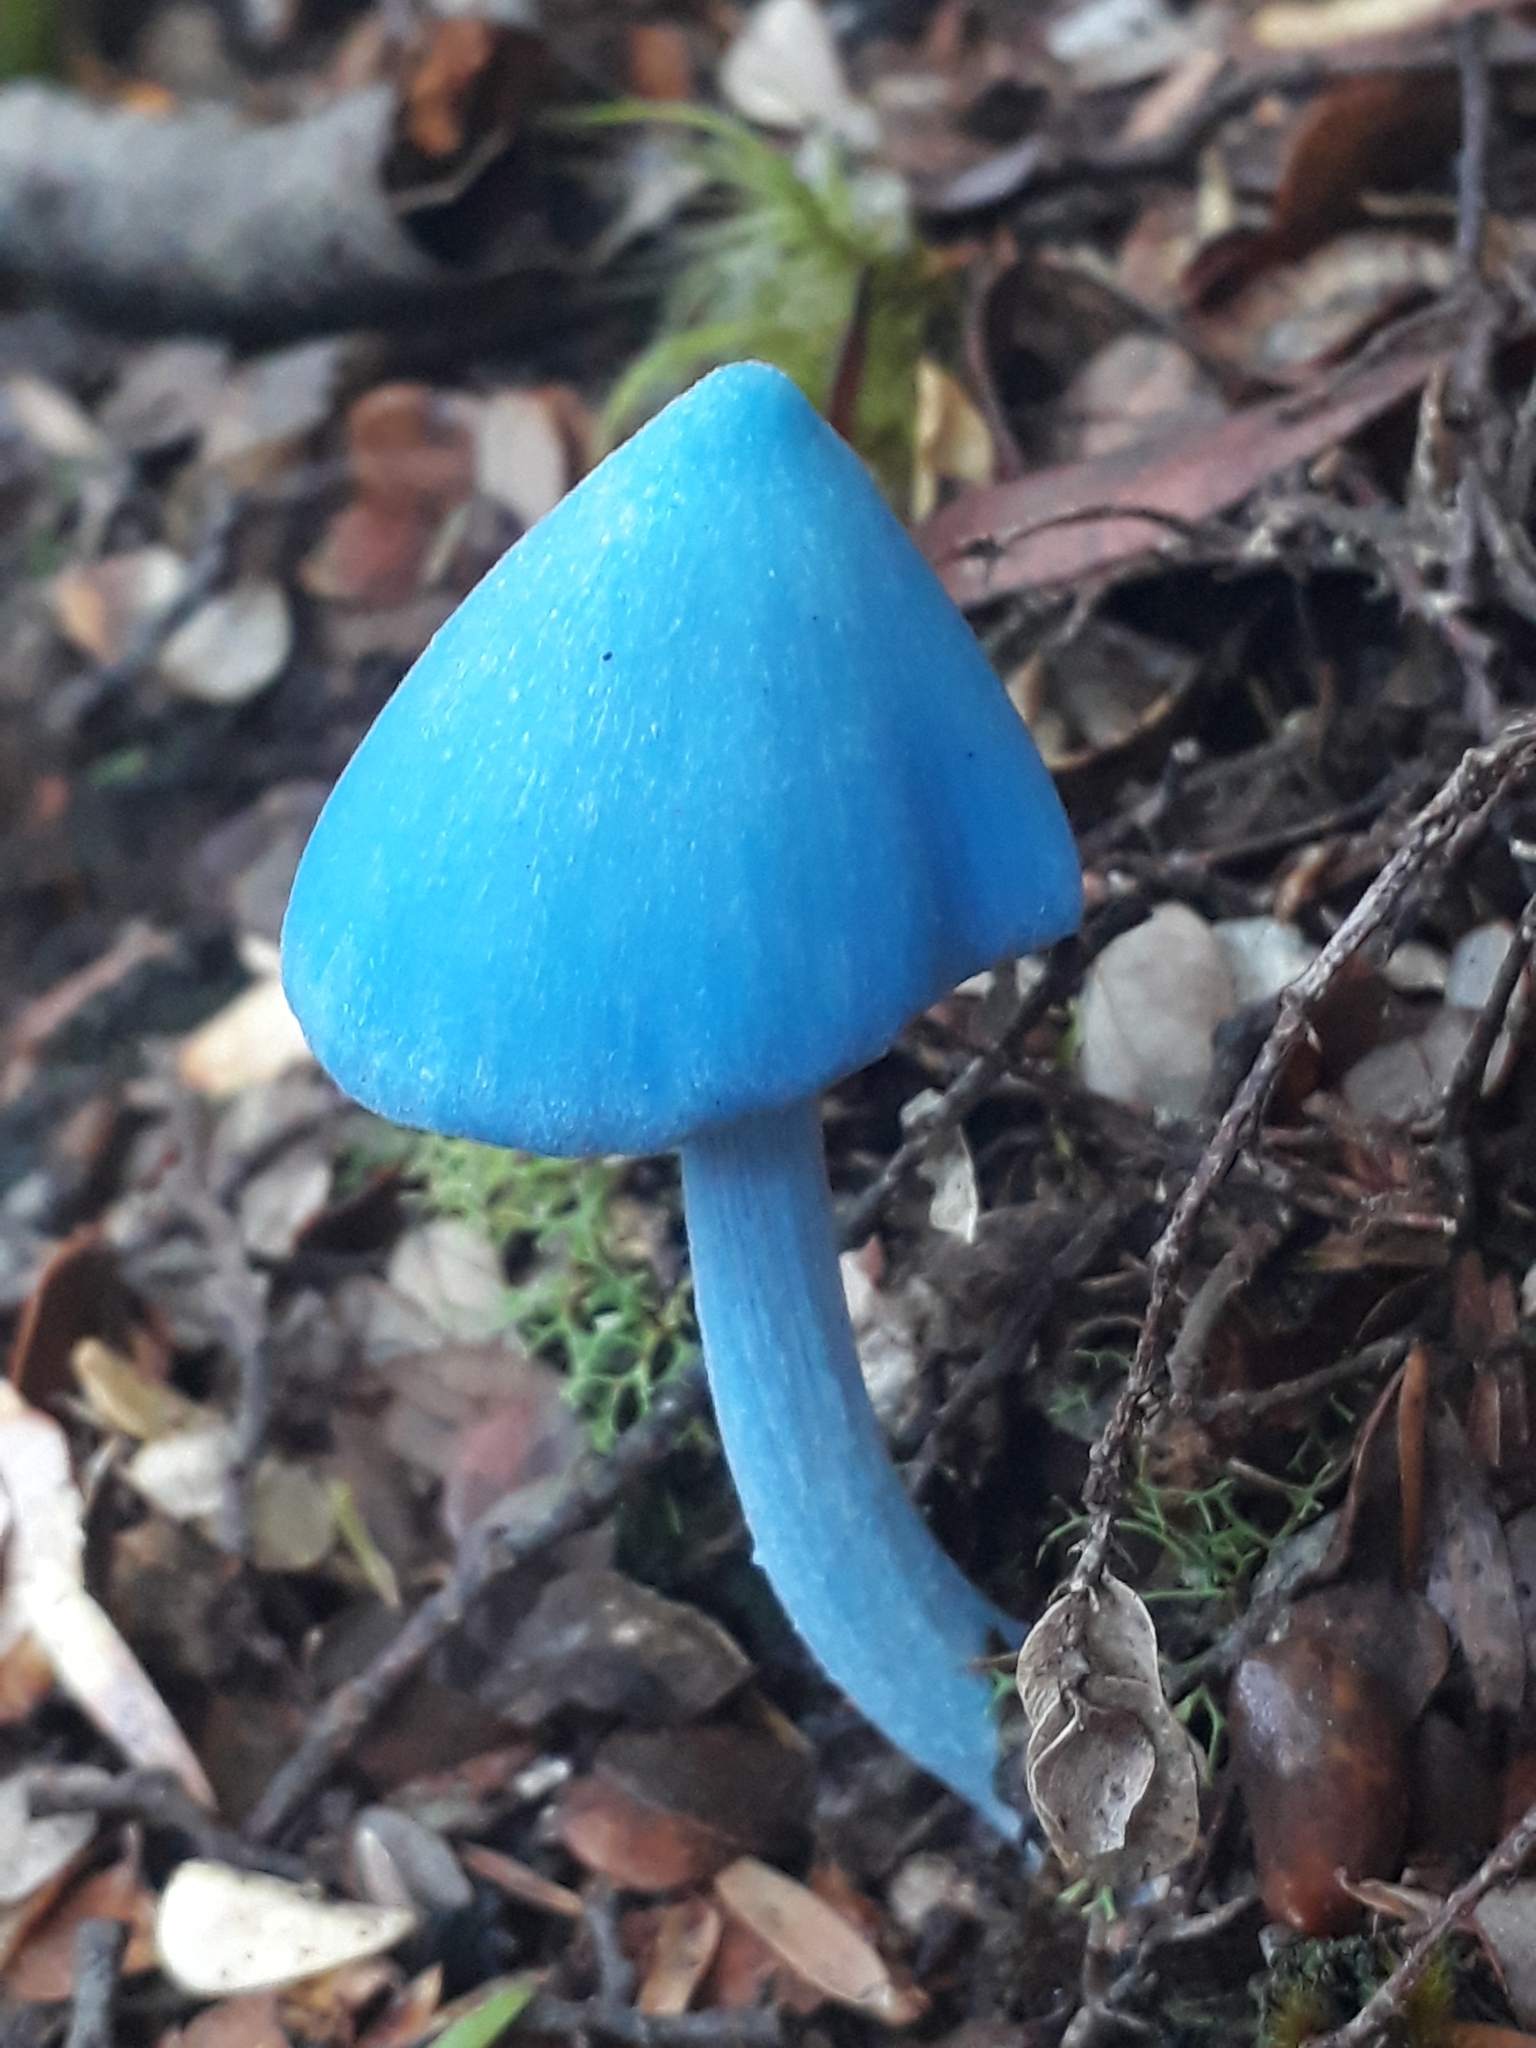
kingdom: Fungi
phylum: Basidiomycota
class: Agaricomycetes
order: Agaricales
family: Entolomataceae
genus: Entoloma
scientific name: Entoloma hochstetteri
